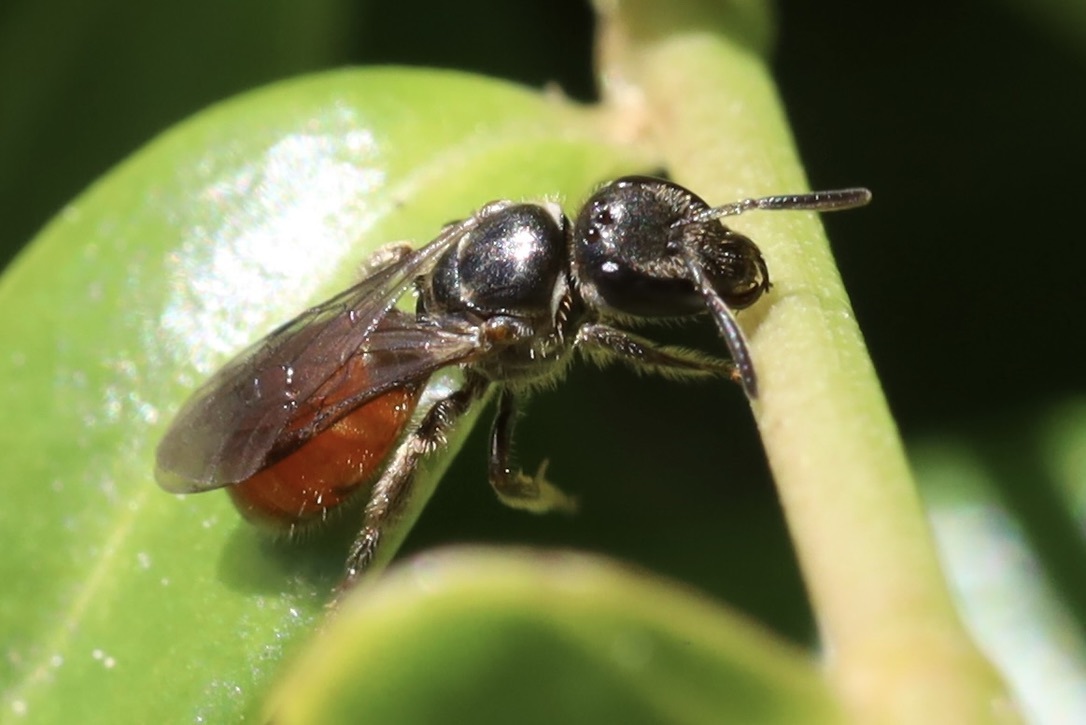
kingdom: Animalia
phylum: Arthropoda
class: Insecta
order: Hymenoptera
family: Halictidae
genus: Lasioglossum
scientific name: Lasioglossum ovaliceps
